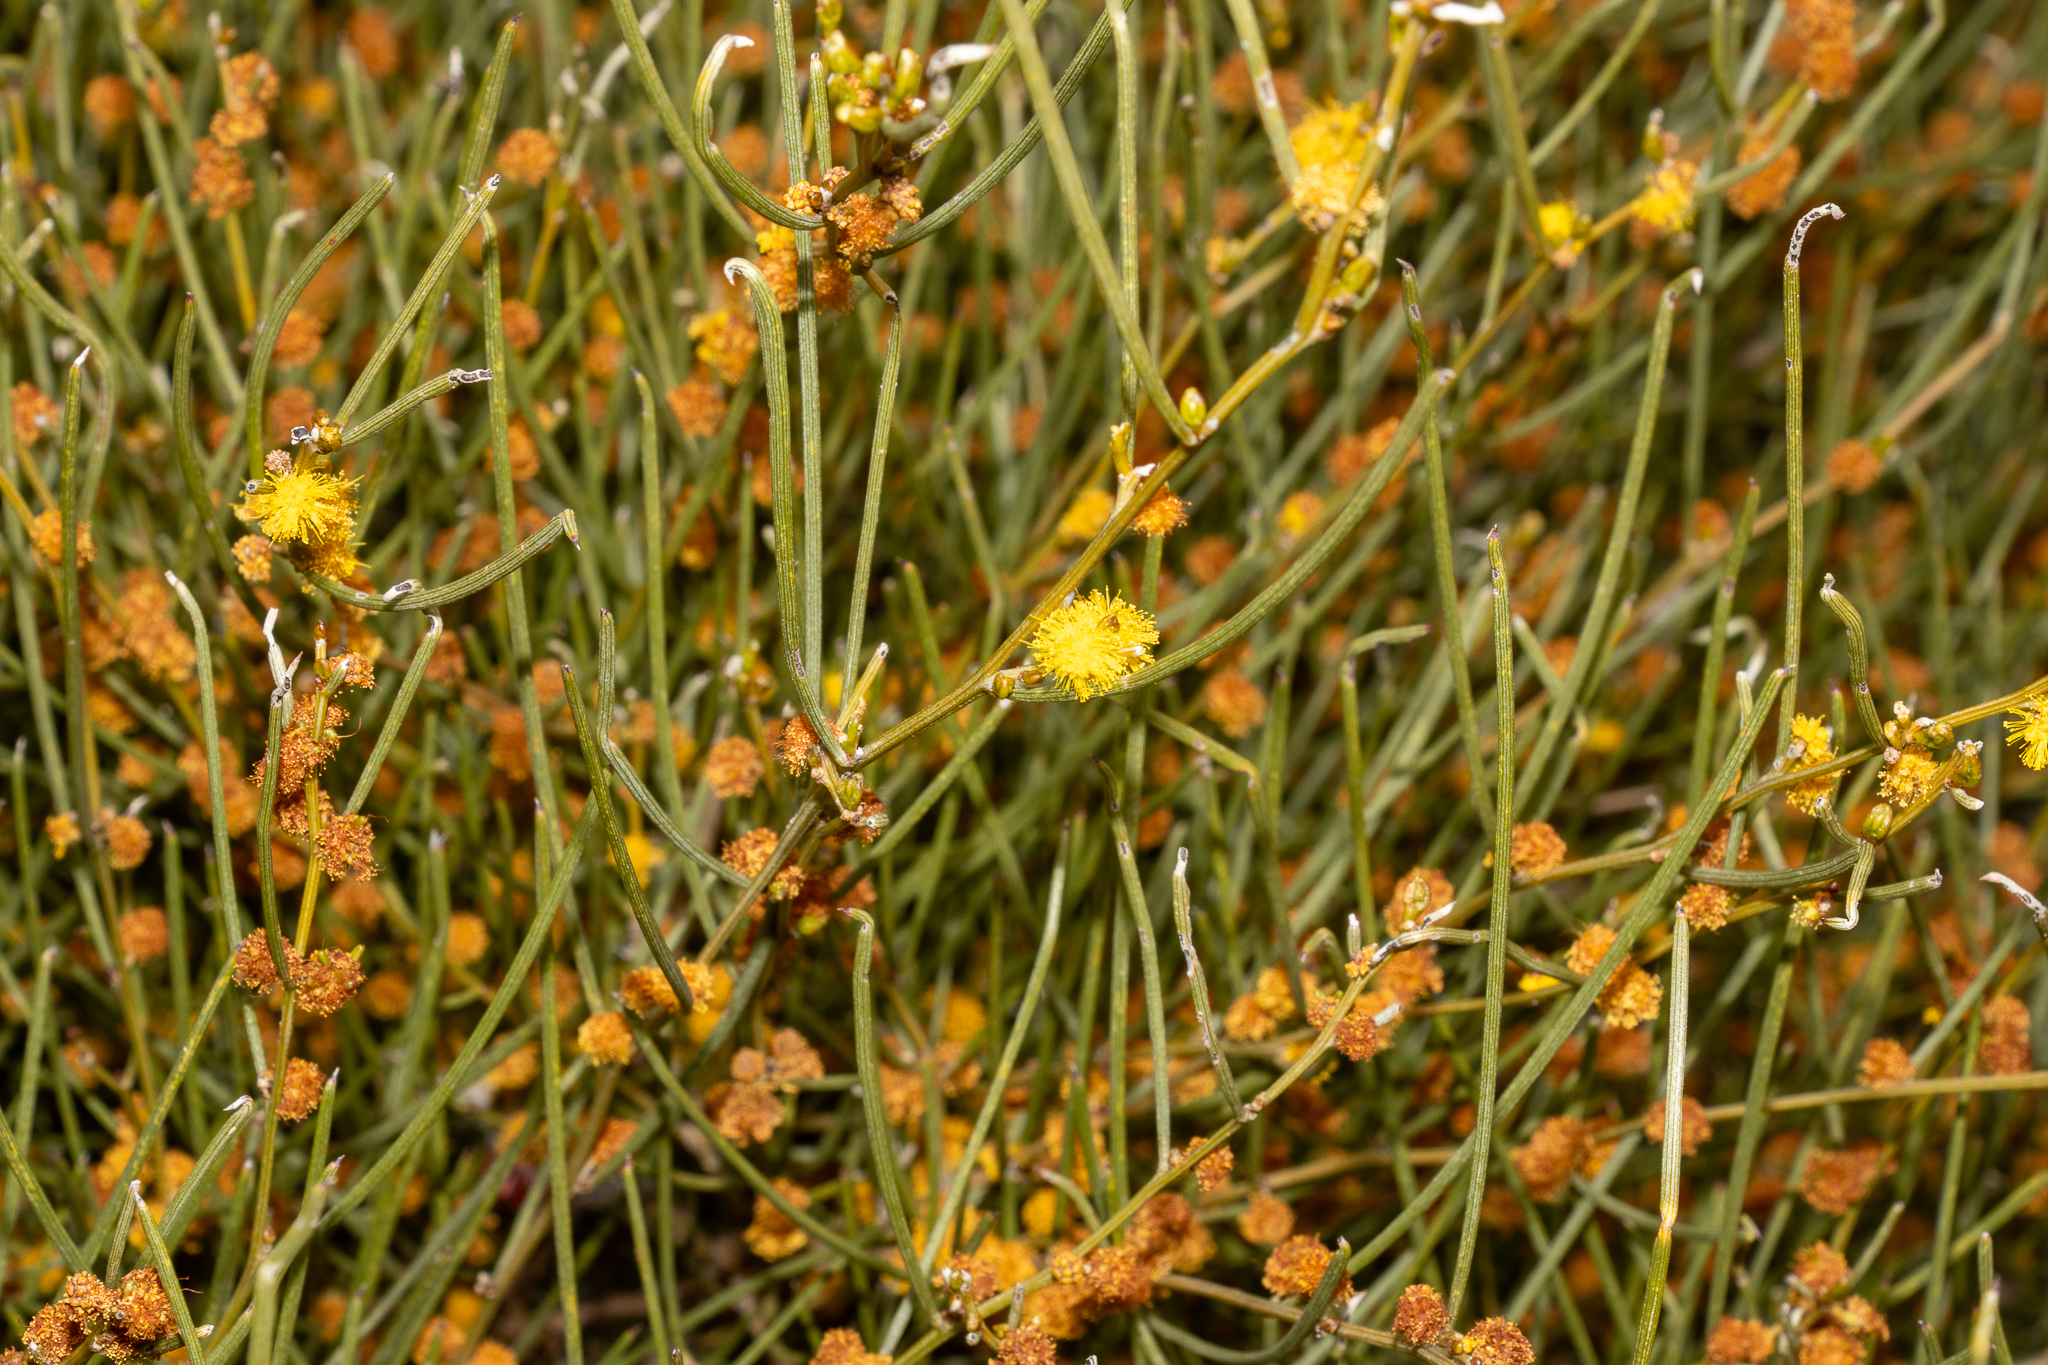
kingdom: Plantae
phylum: Tracheophyta
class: Magnoliopsida
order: Fabales
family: Fabaceae
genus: Acacia
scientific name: Acacia rigens
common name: Nealie
